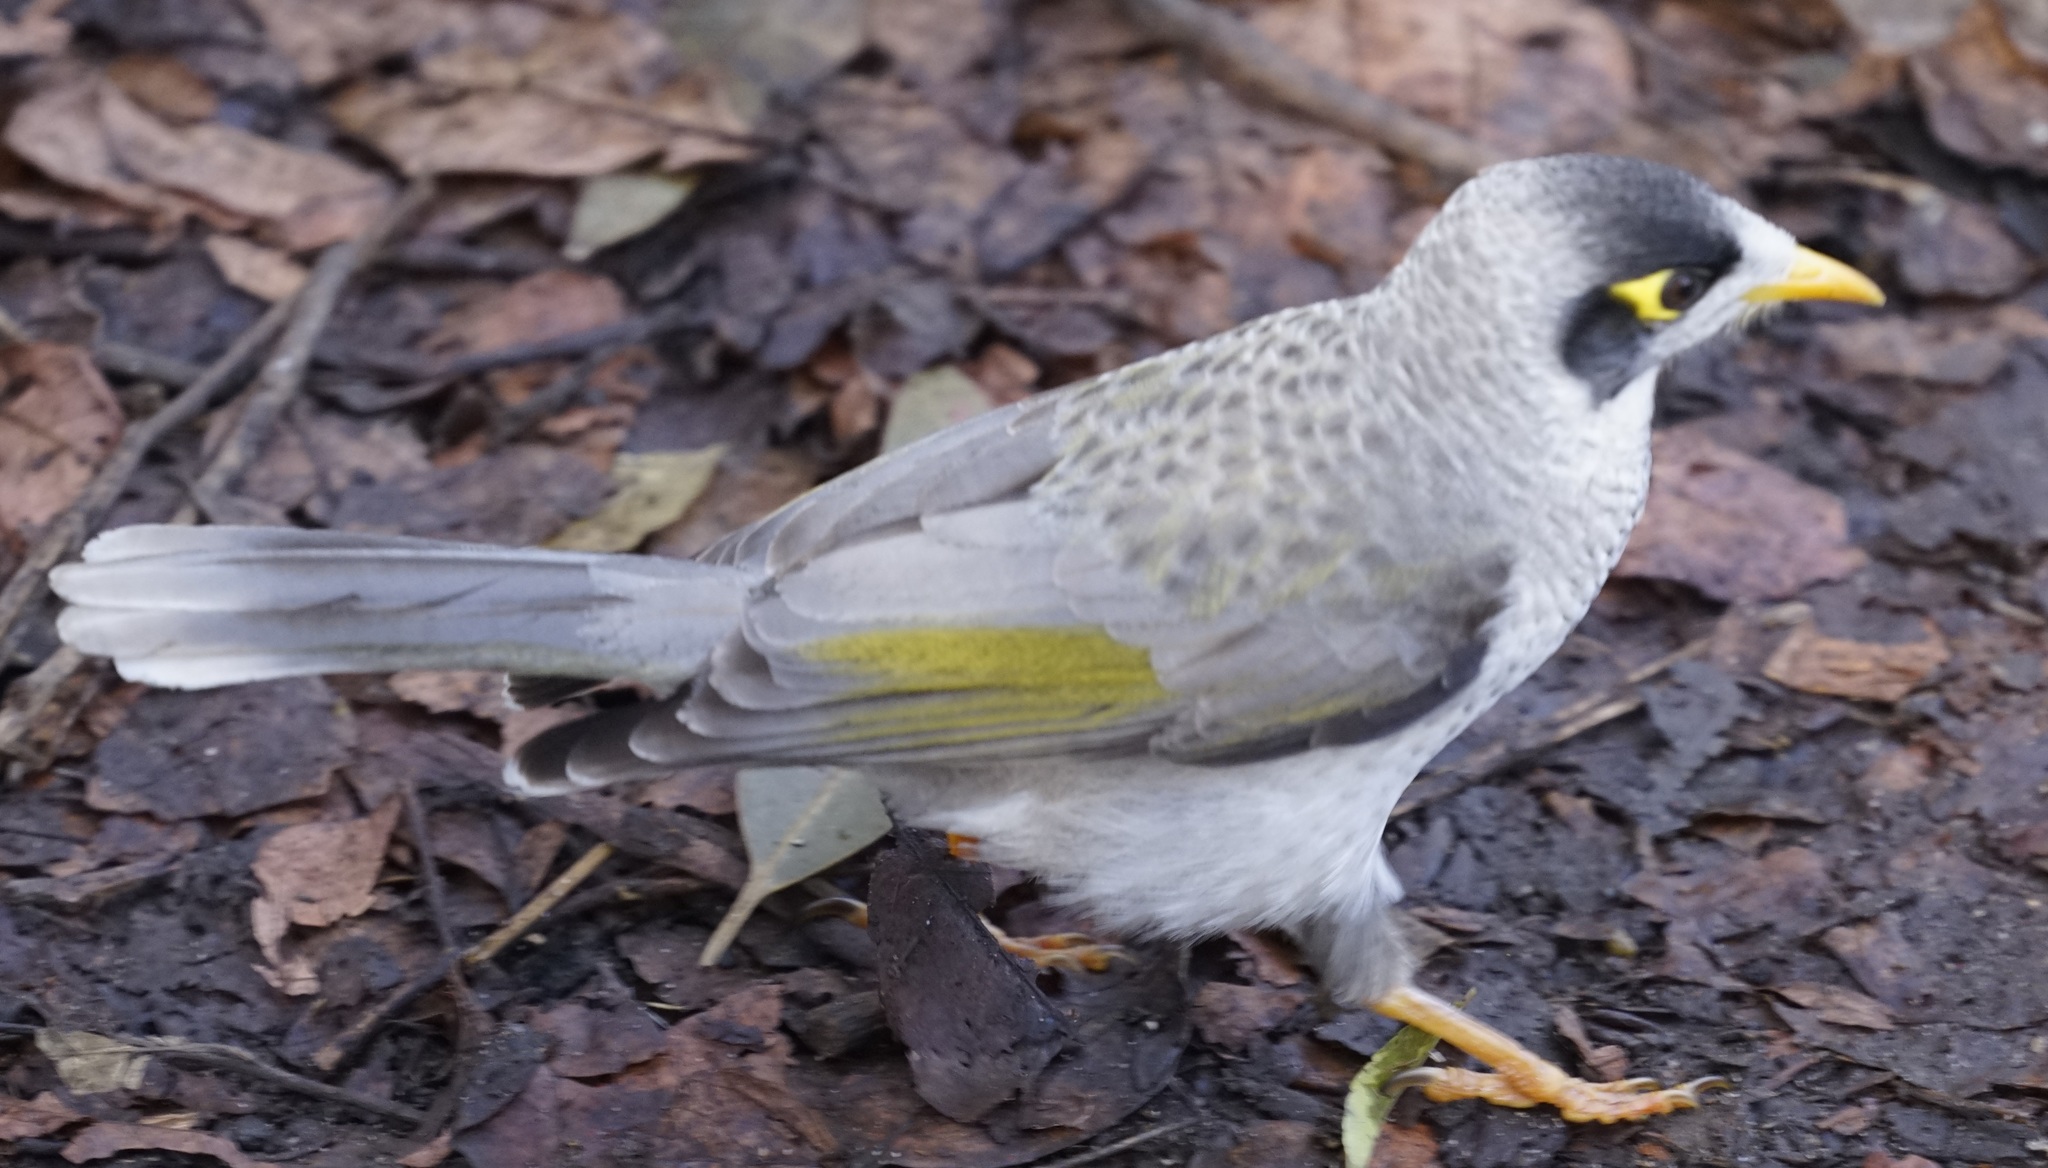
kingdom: Animalia
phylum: Chordata
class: Aves
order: Passeriformes
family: Meliphagidae
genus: Manorina
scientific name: Manorina melanocephala
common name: Noisy miner
